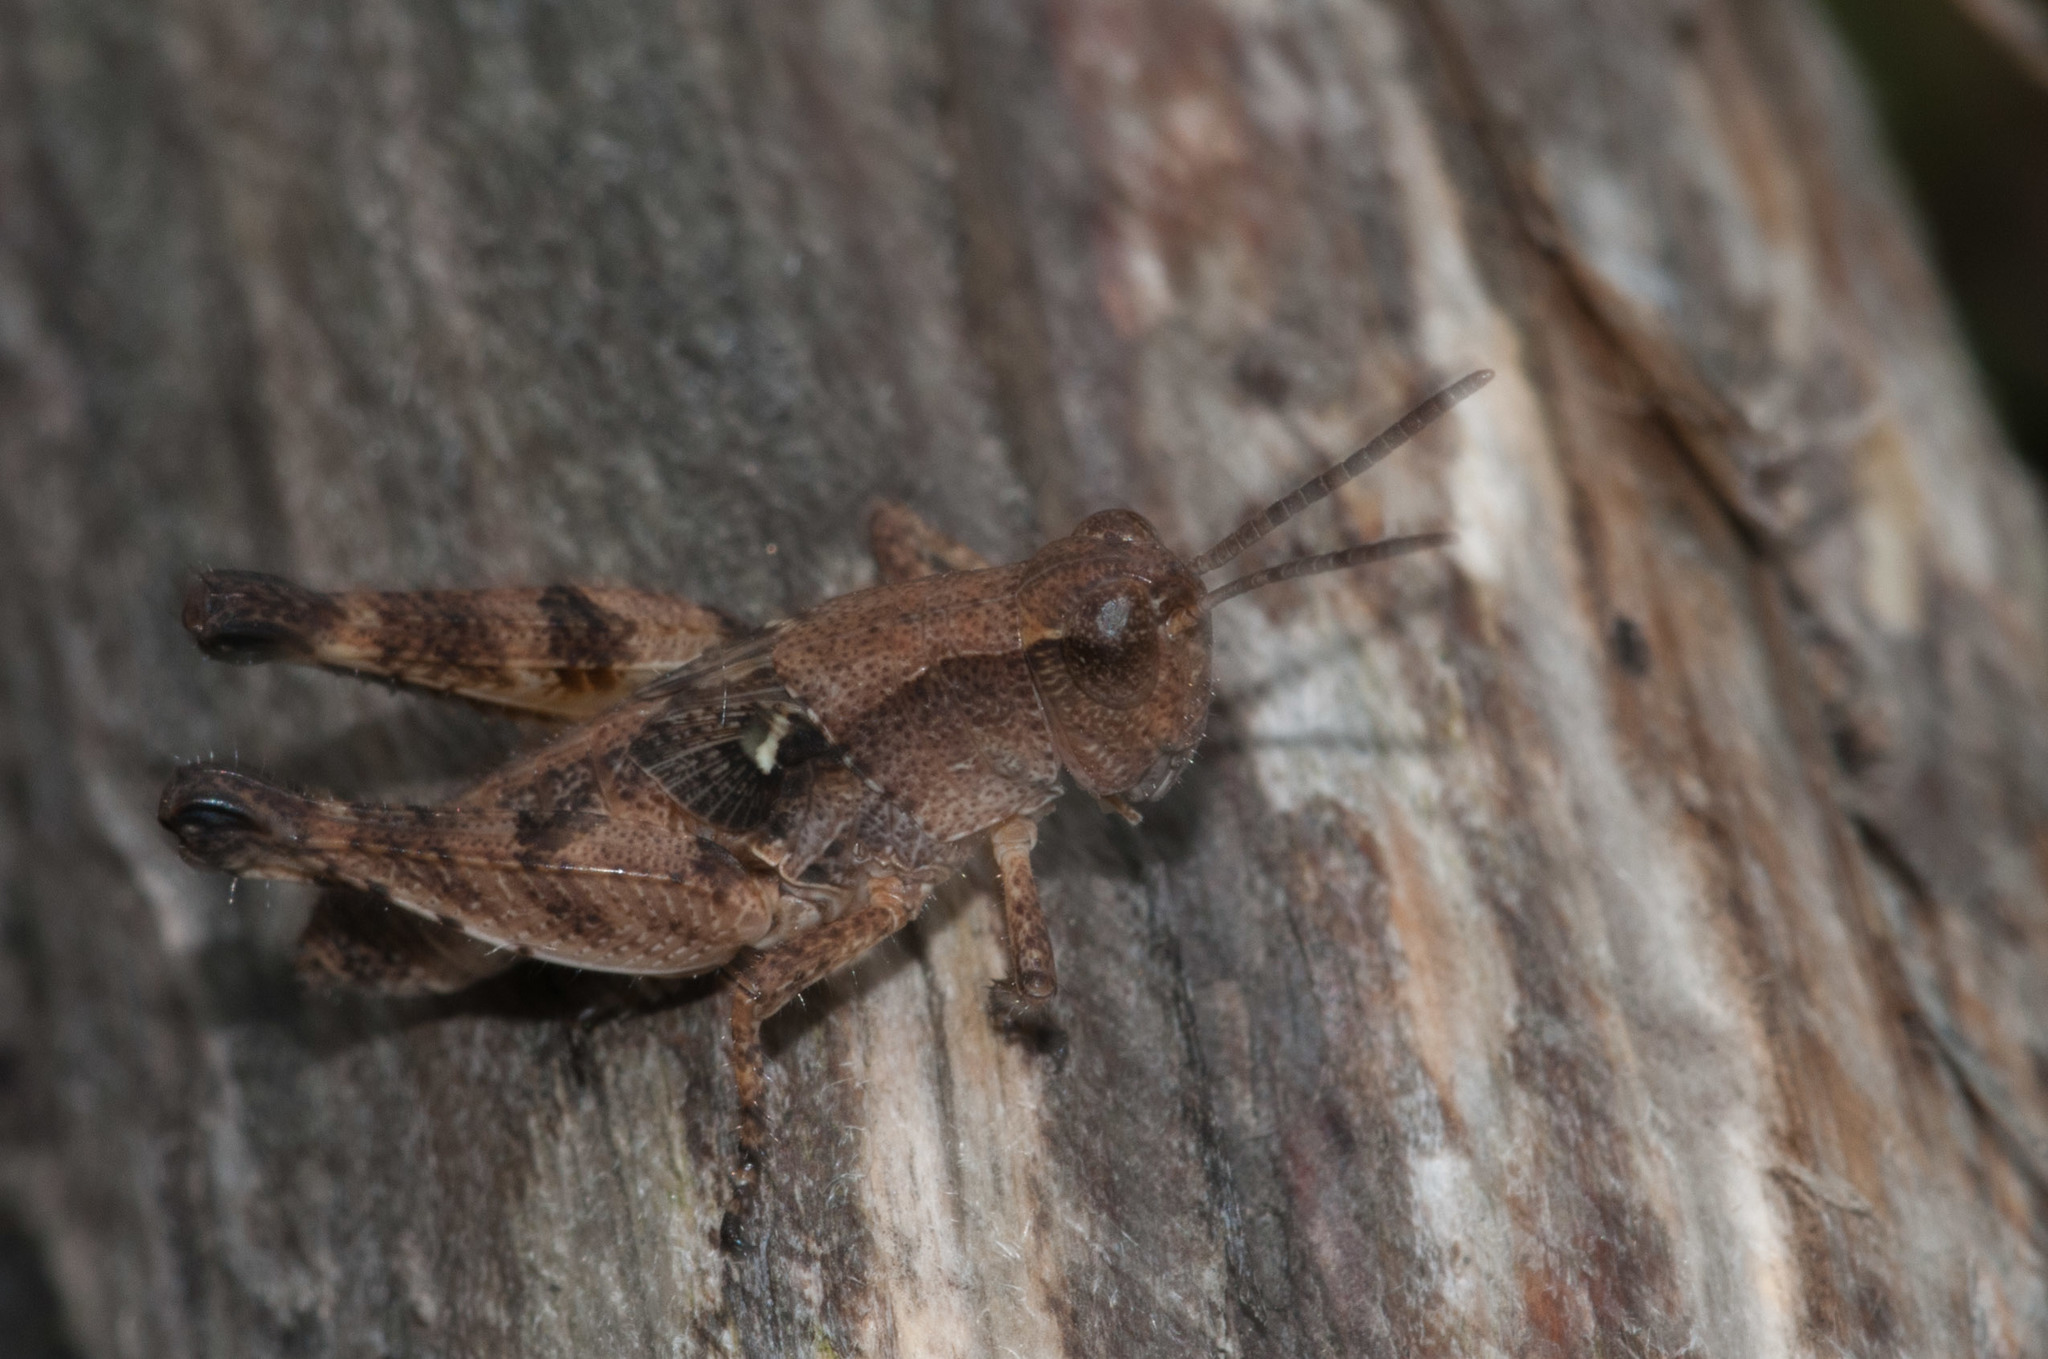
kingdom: Animalia
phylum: Arthropoda
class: Insecta
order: Orthoptera
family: Acrididae
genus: Phaulacridium
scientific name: Phaulacridium vittatum
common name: Wingless grasshopper
